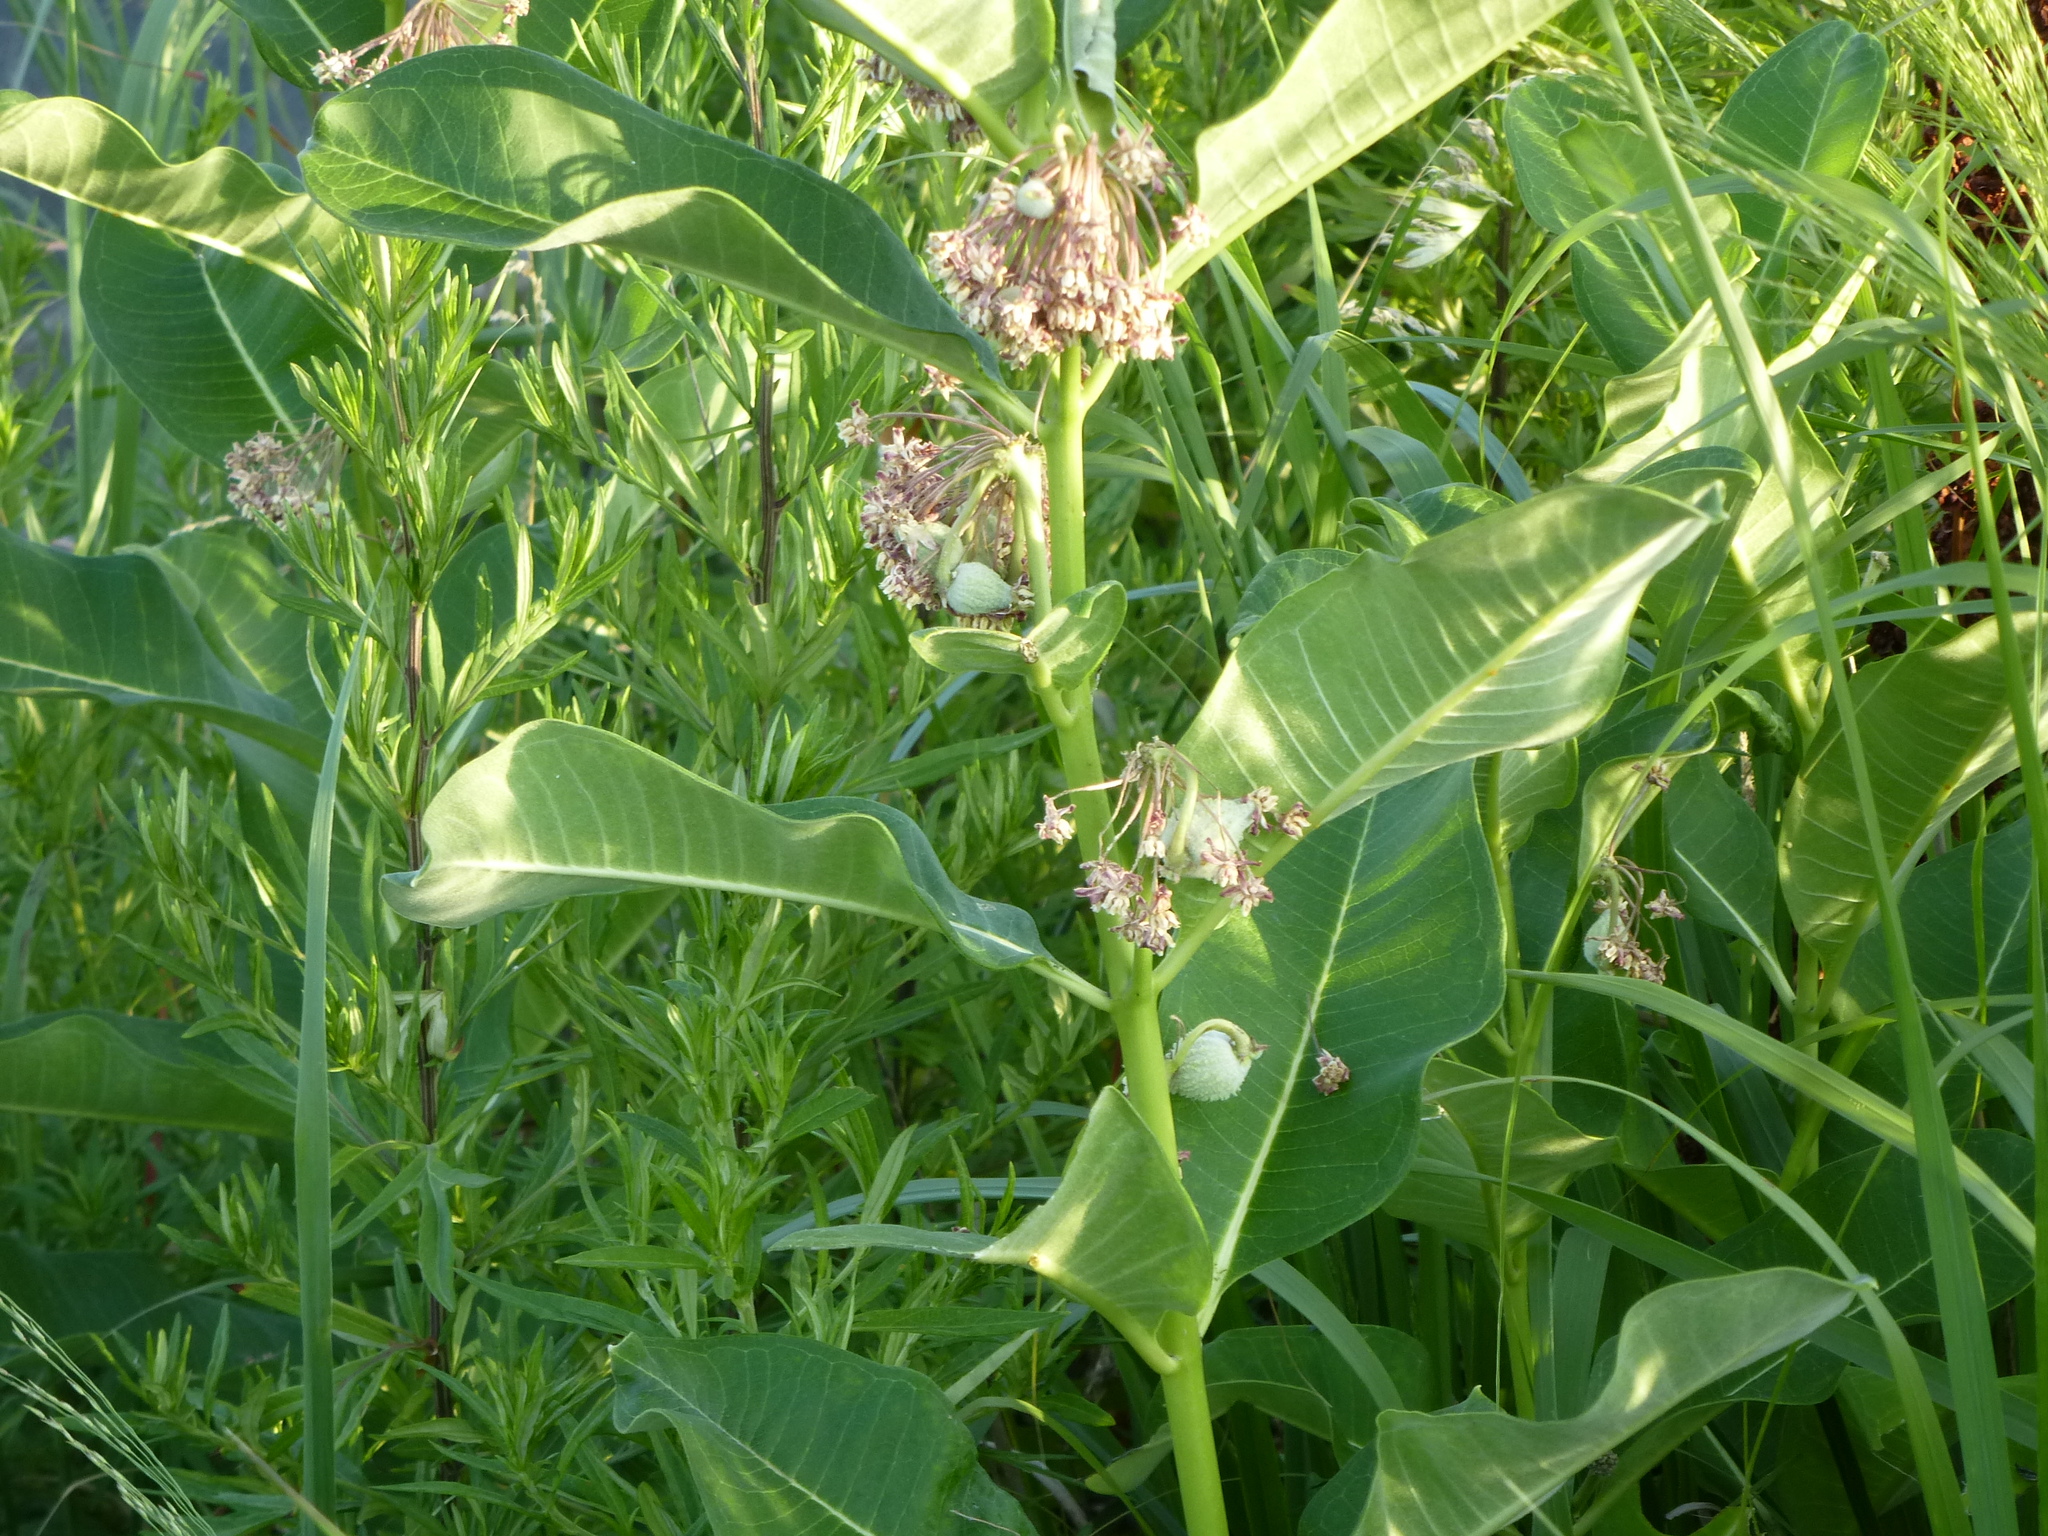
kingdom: Plantae
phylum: Tracheophyta
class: Magnoliopsida
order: Gentianales
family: Apocynaceae
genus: Asclepias
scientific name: Asclepias syriaca
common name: Common milkweed
